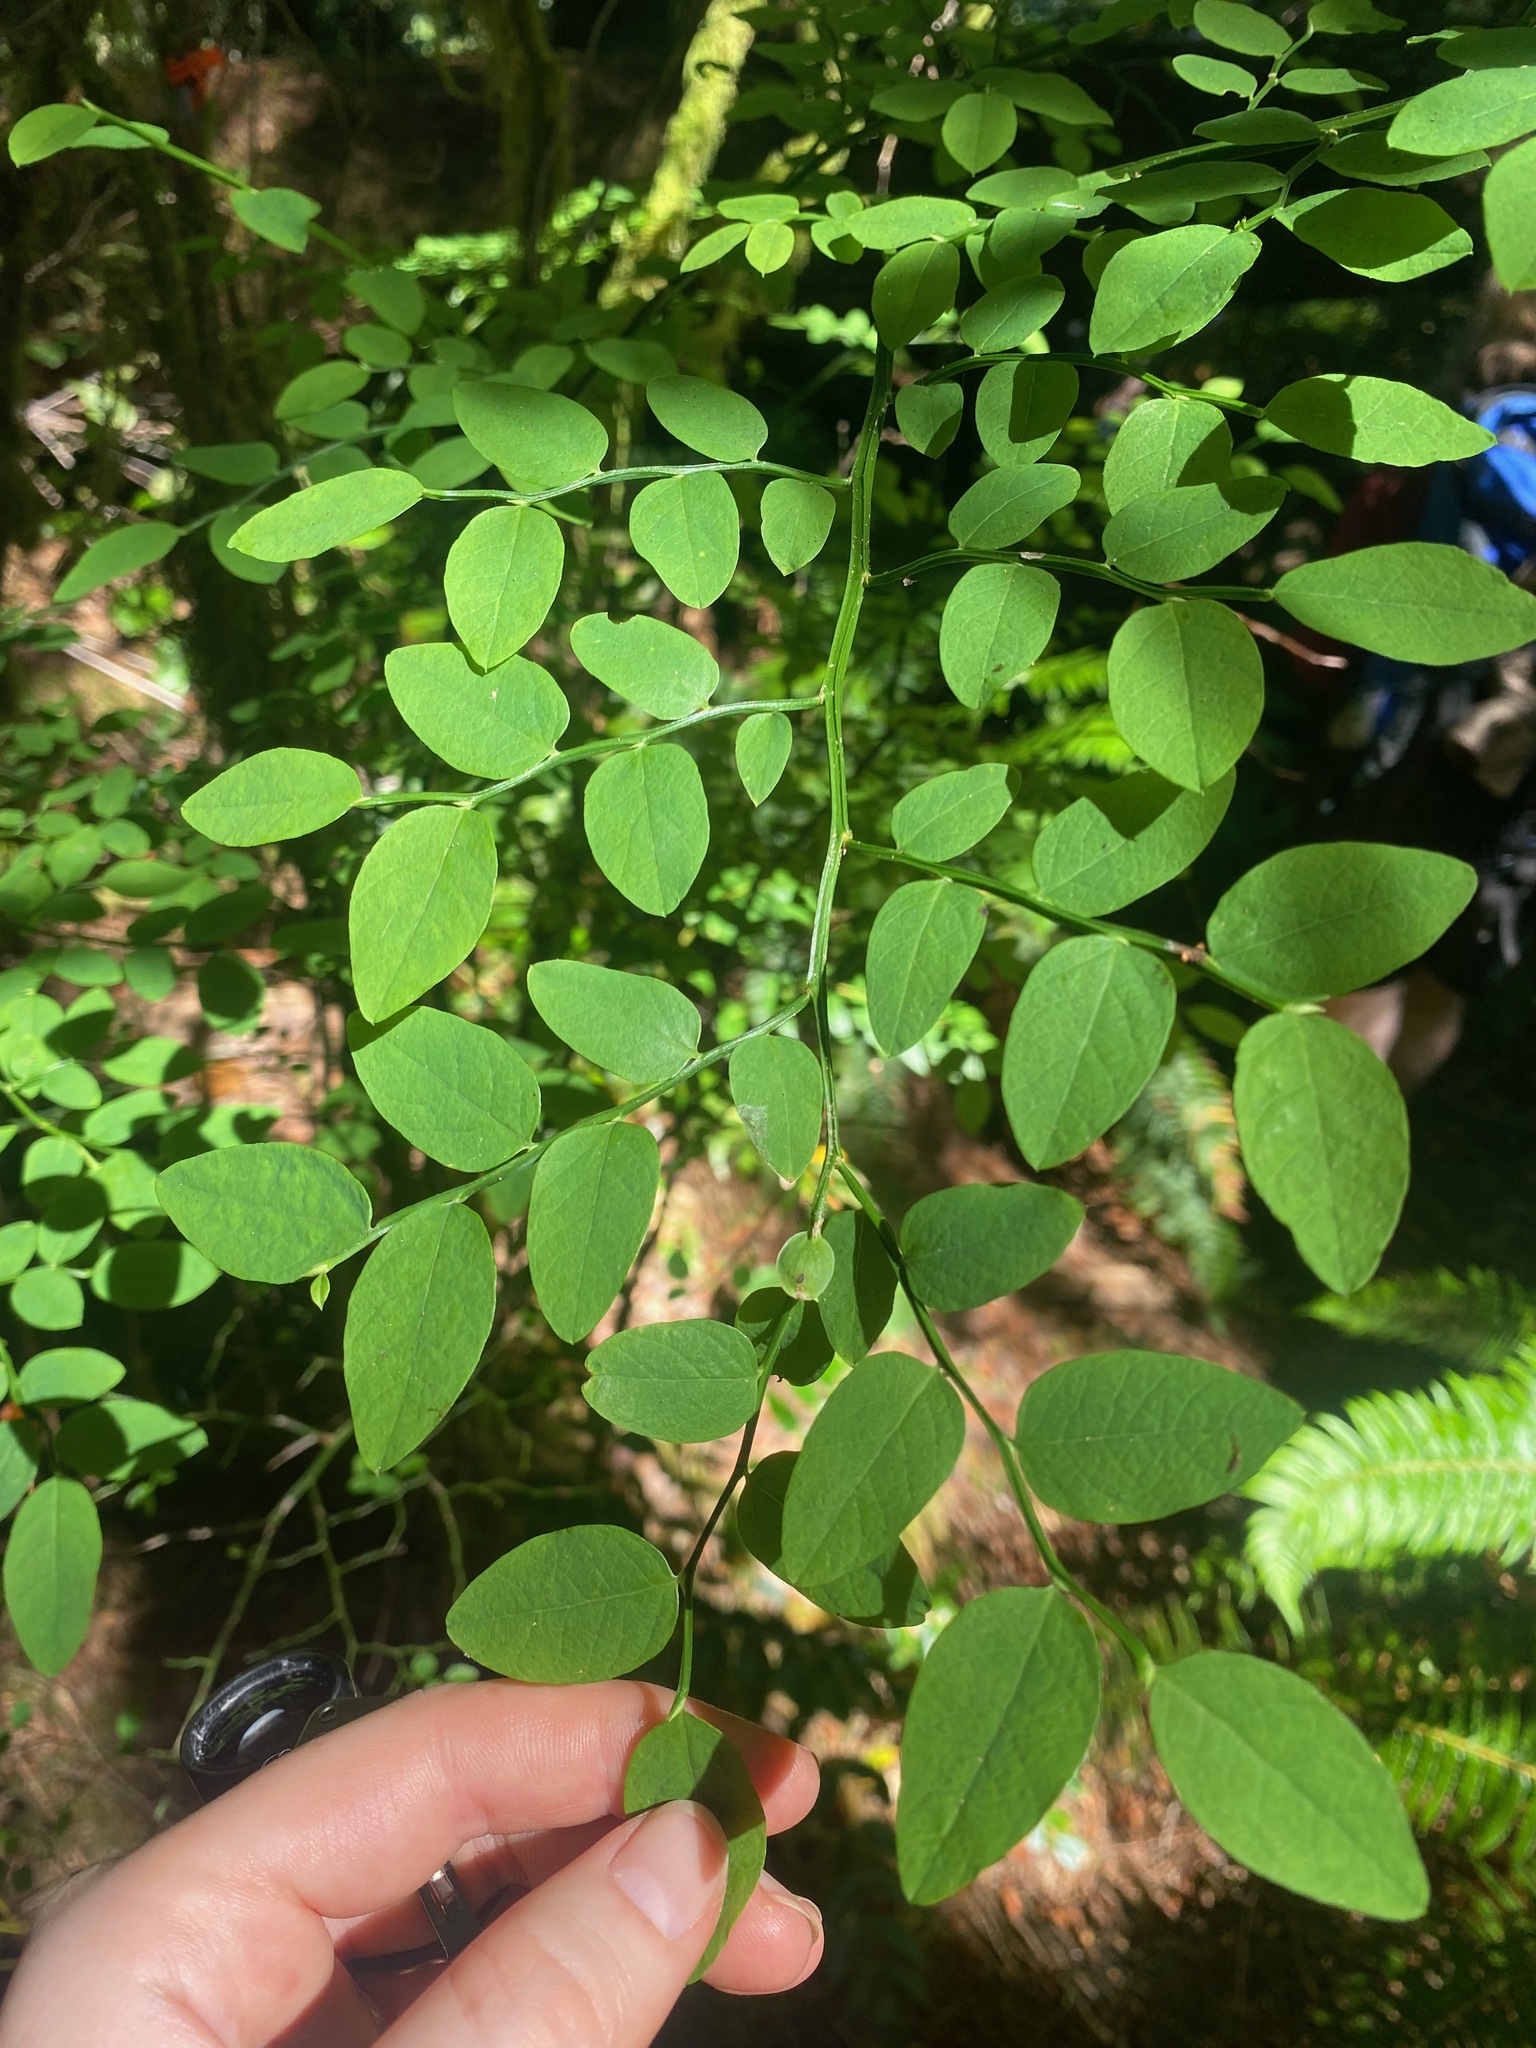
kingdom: Plantae
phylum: Tracheophyta
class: Magnoliopsida
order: Ericales
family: Ericaceae
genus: Vaccinium
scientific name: Vaccinium parvifolium
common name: Red-huckleberry
